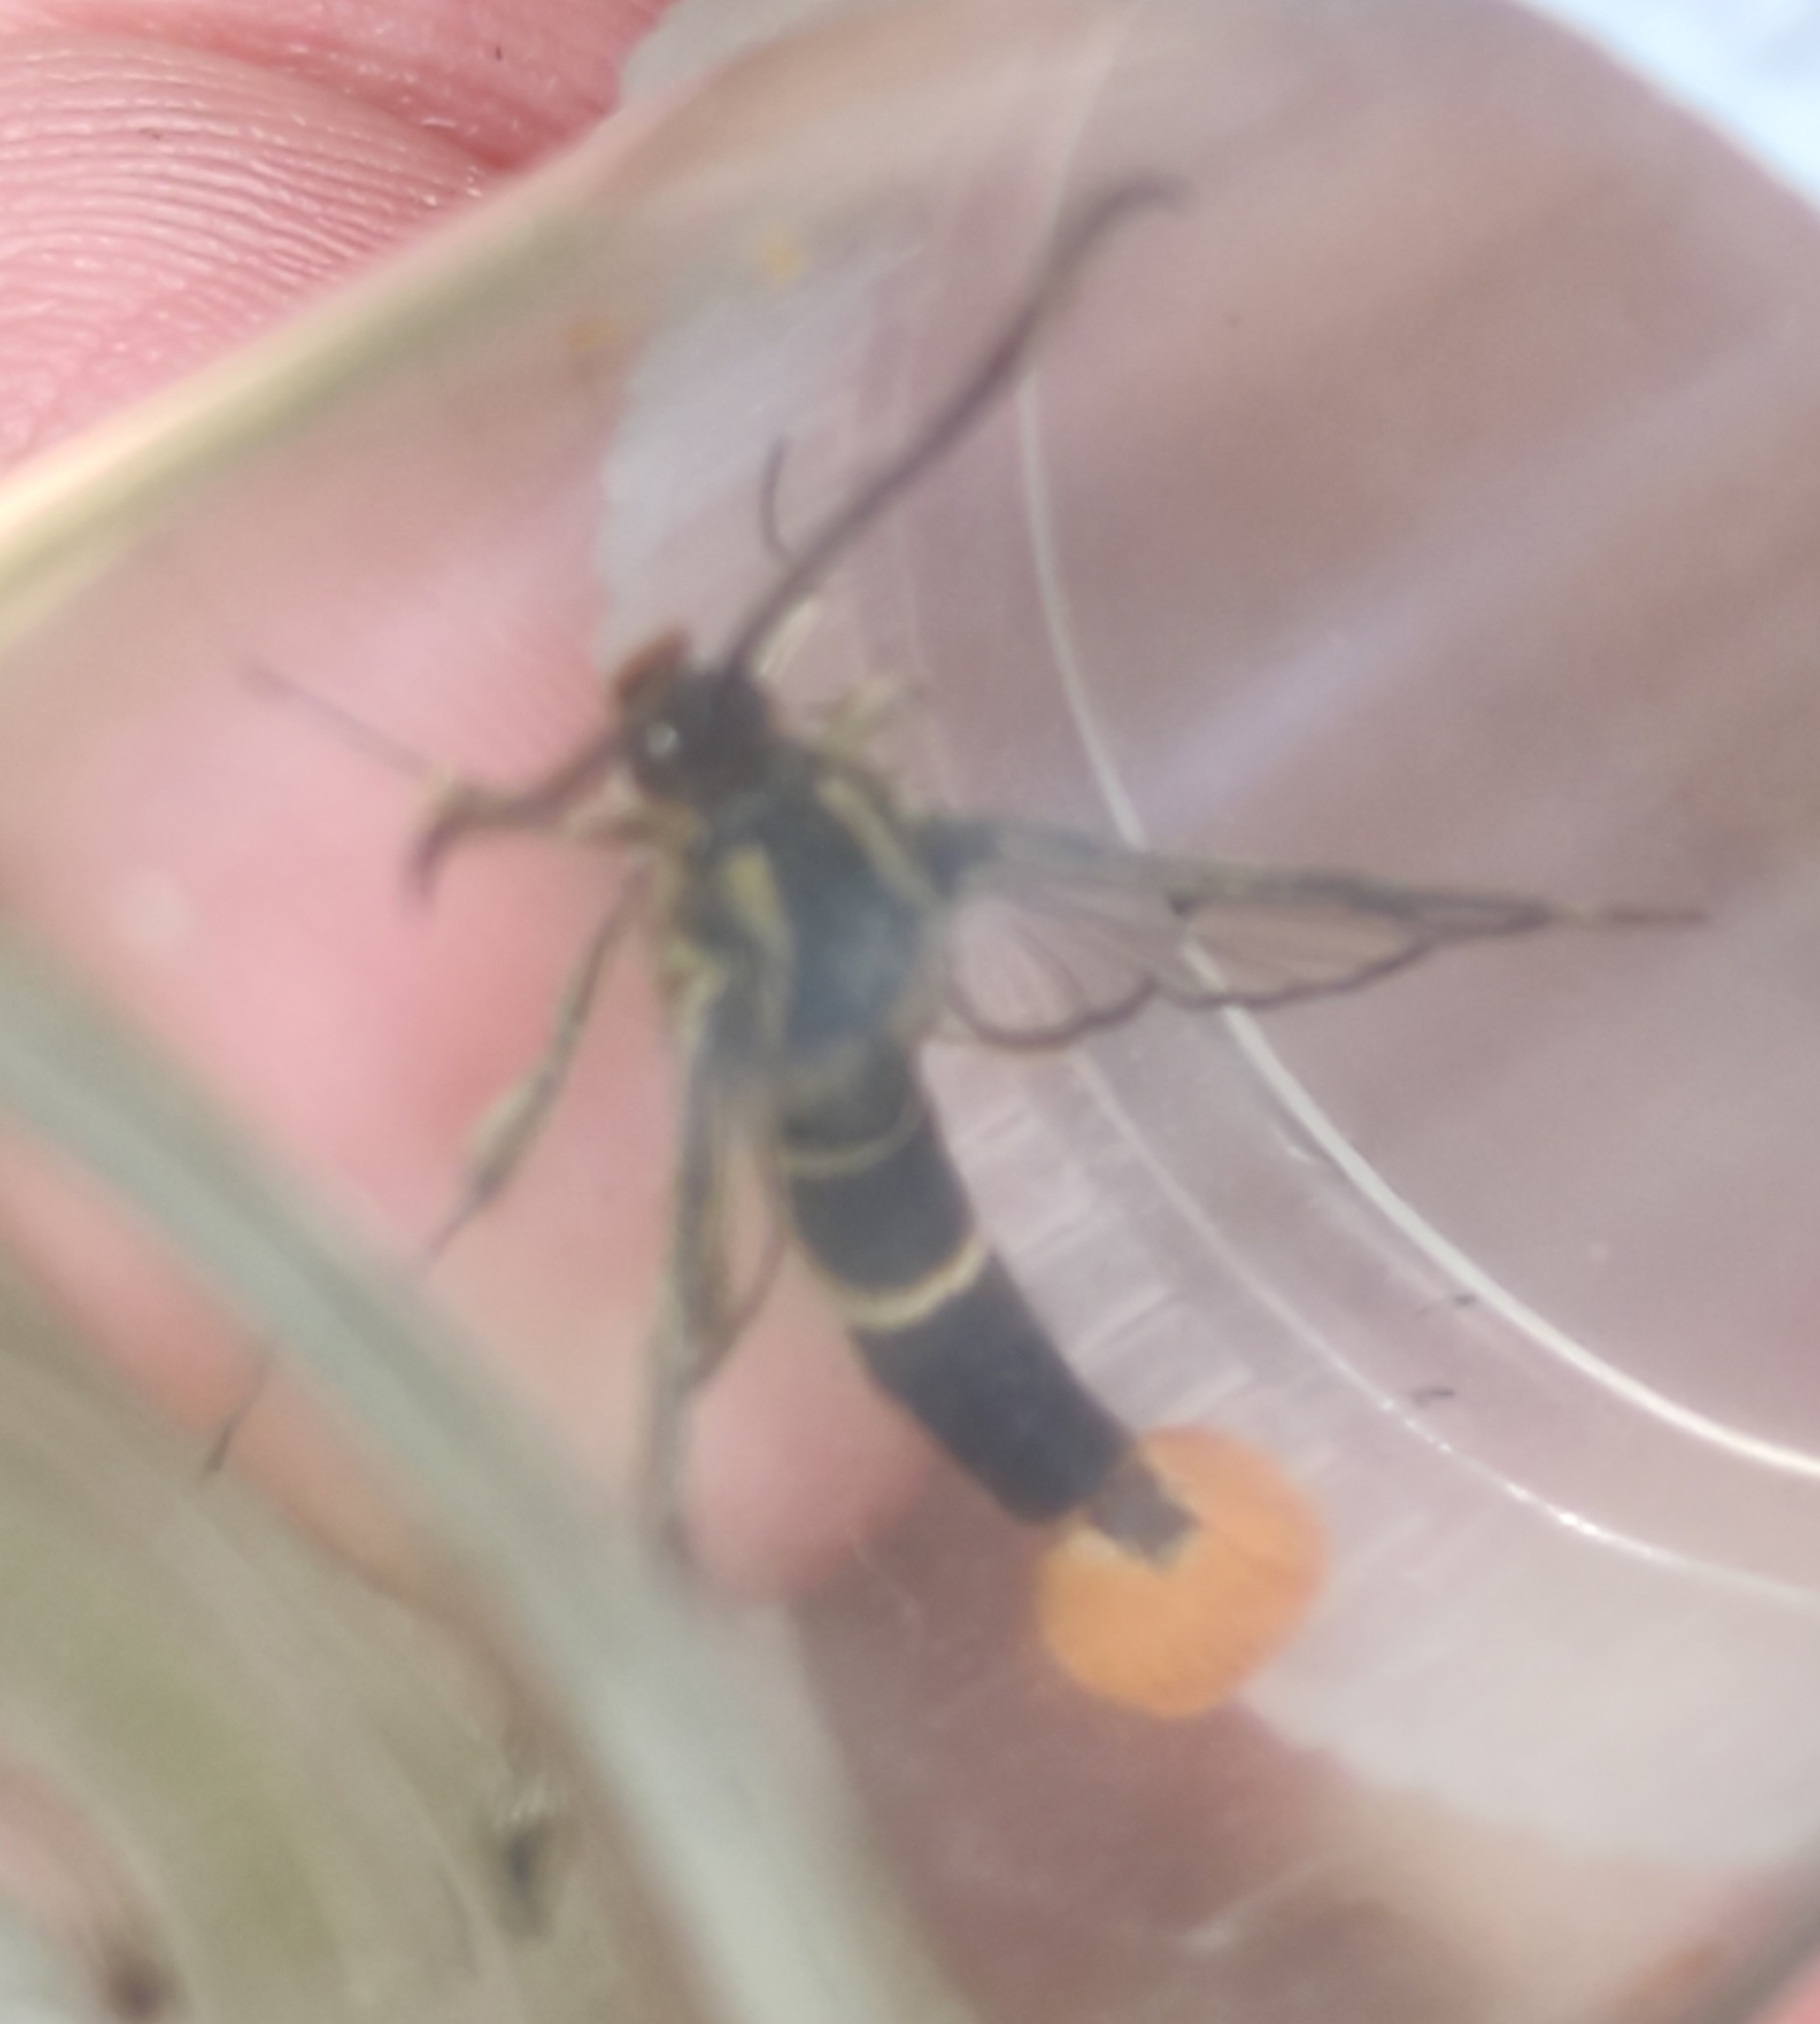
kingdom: Animalia
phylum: Arthropoda
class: Insecta
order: Lepidoptera
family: Sesiidae
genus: Synanthedon
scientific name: Synanthedon scoliaeformis
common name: Welsh clearwing
